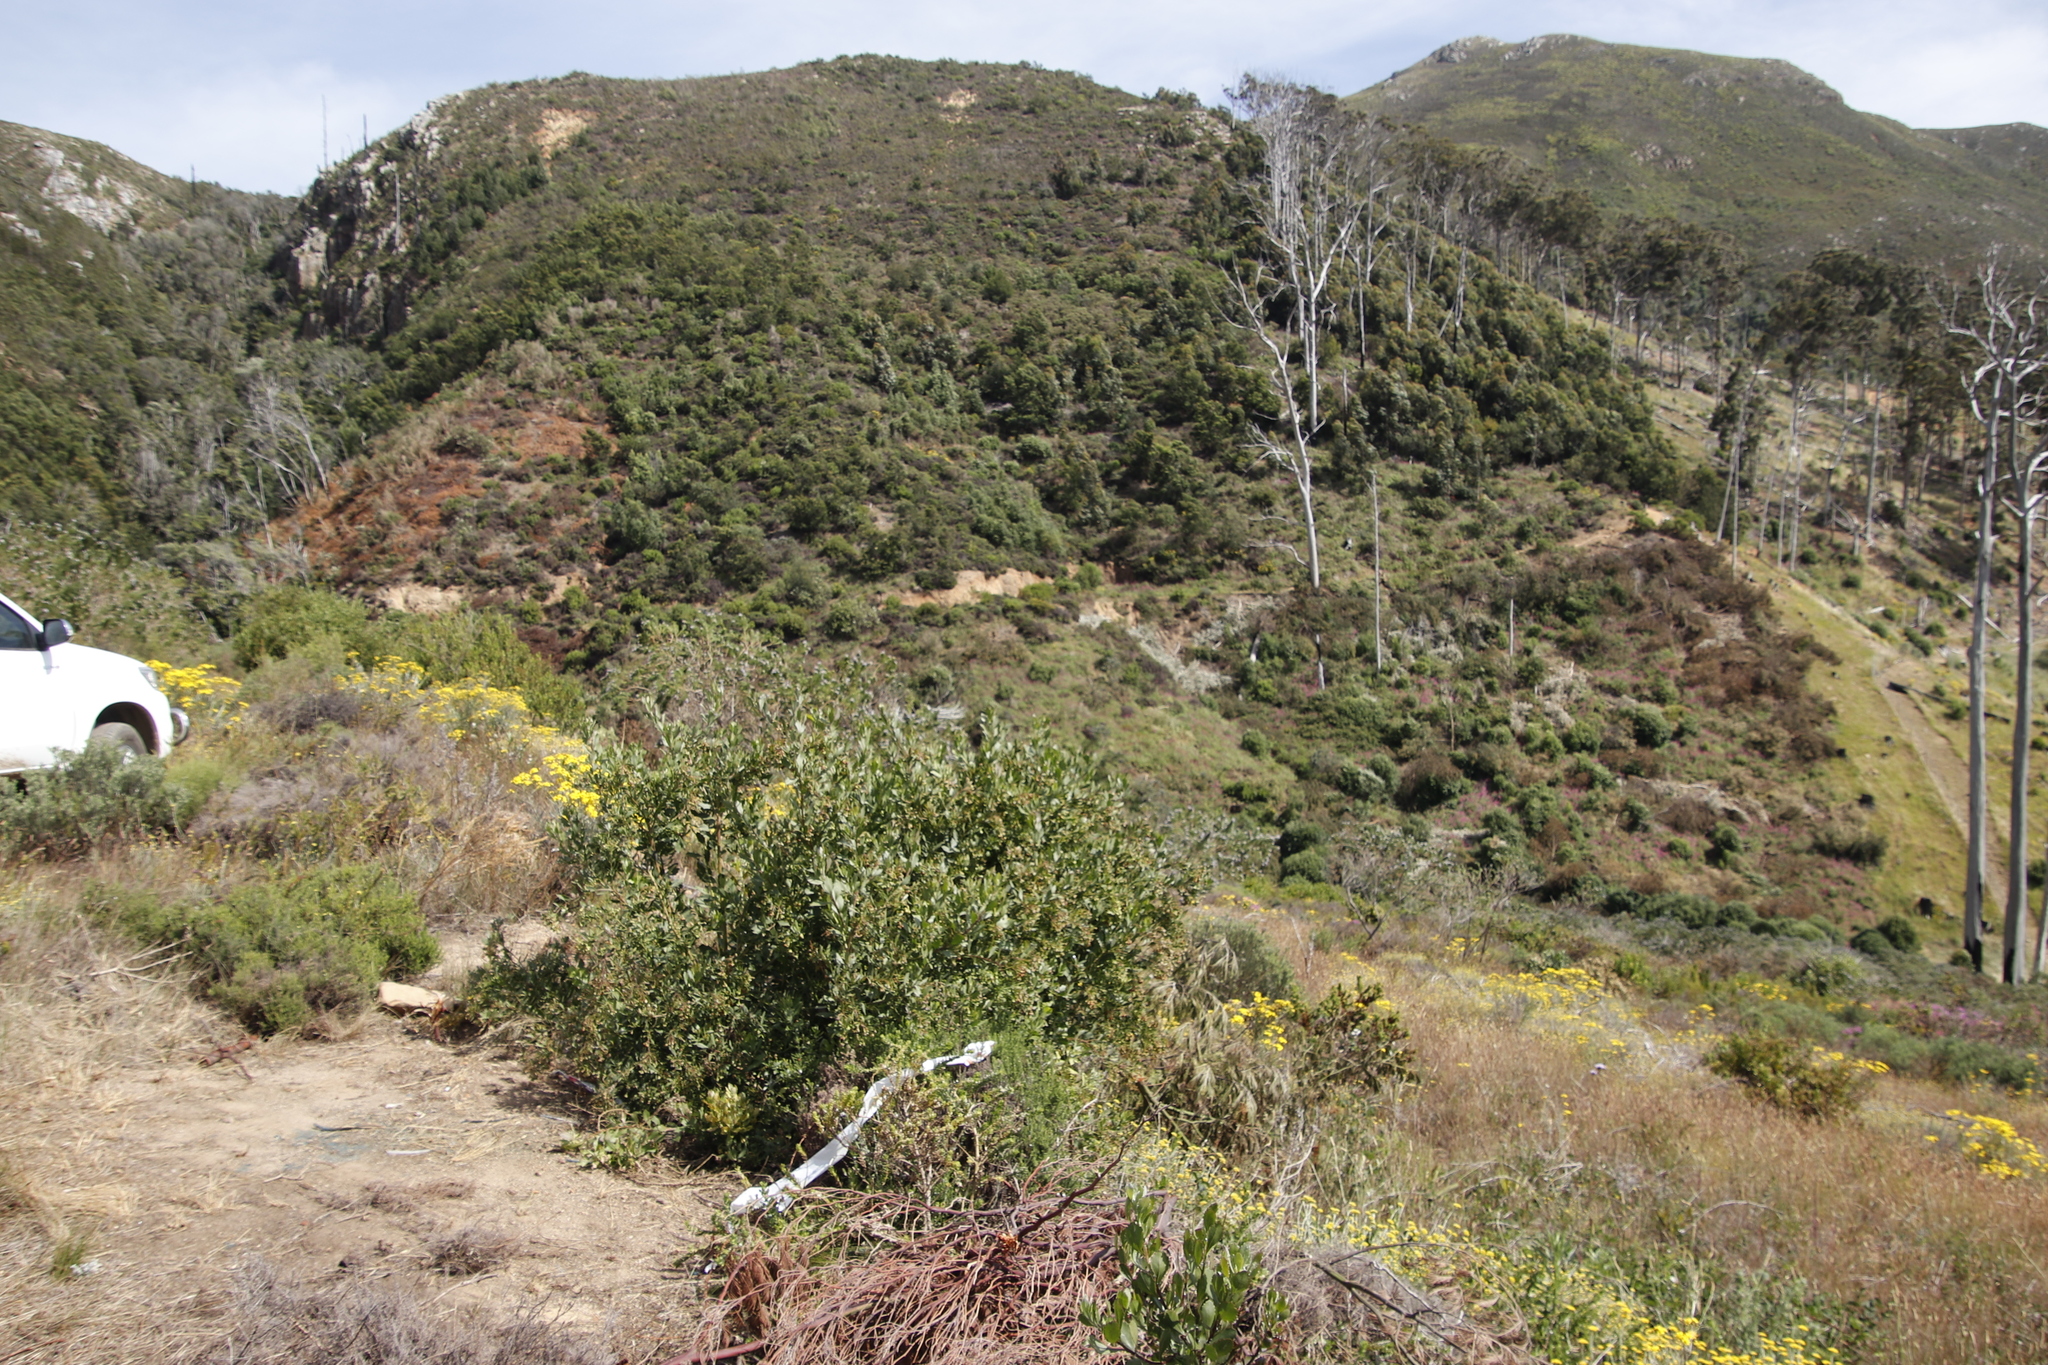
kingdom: Plantae
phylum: Tracheophyta
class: Magnoliopsida
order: Asterales
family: Asteraceae
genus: Osteospermum
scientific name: Osteospermum moniliferum
